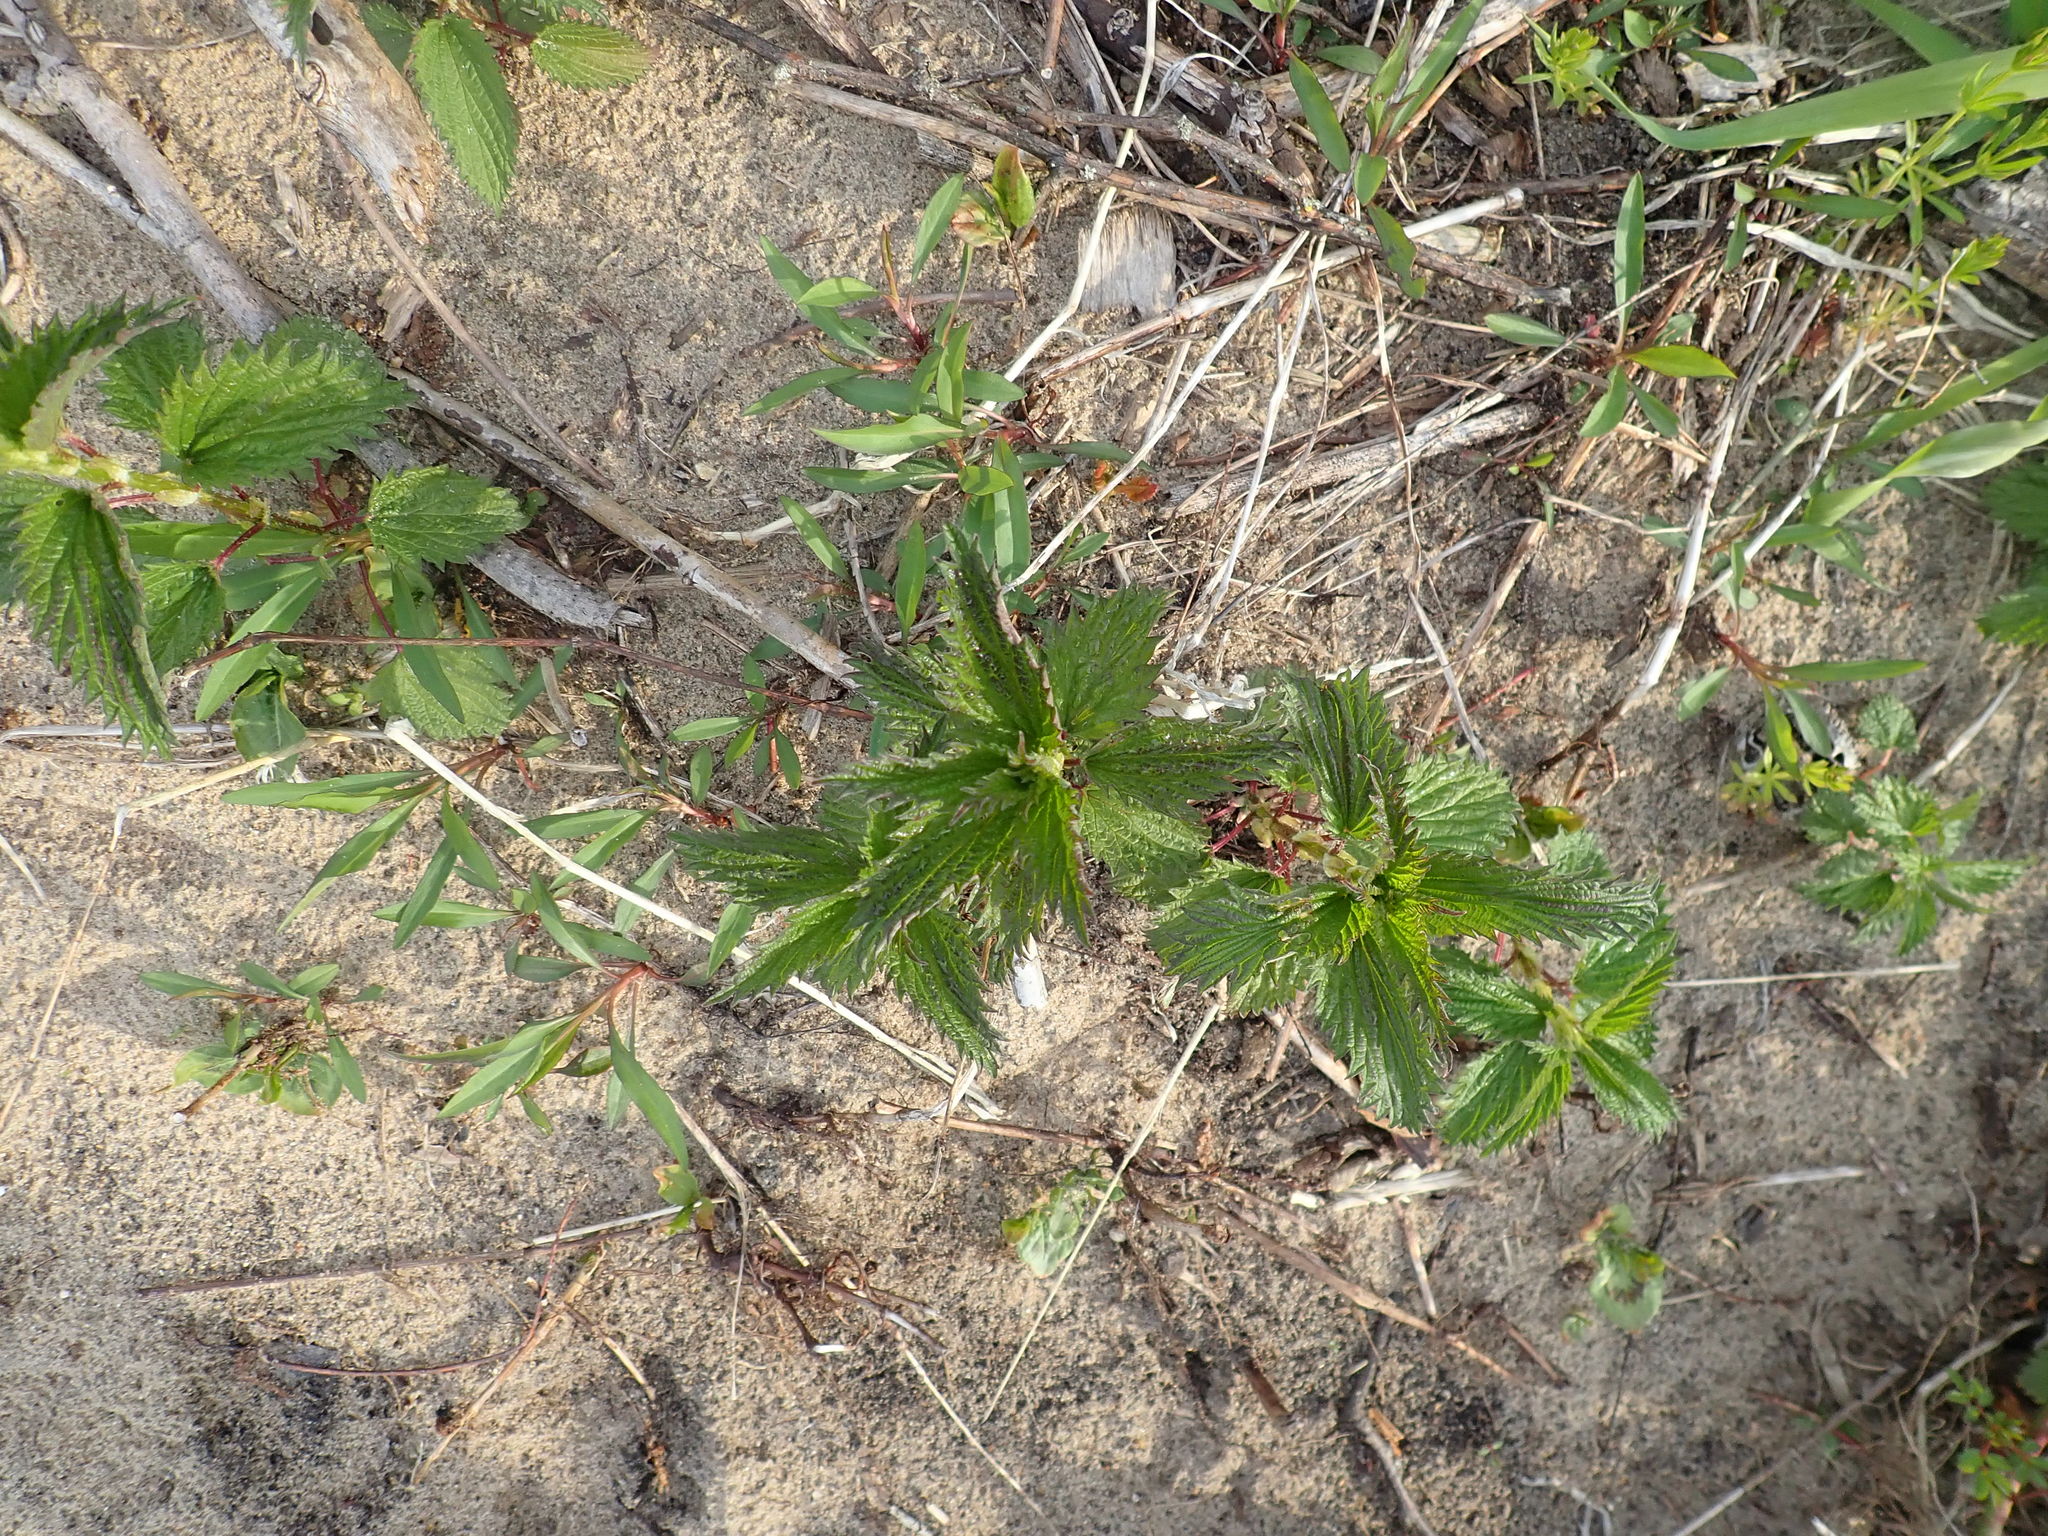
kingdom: Plantae
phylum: Tracheophyta
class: Magnoliopsida
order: Rosales
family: Urticaceae
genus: Urtica
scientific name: Urtica dioica
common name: Common nettle
